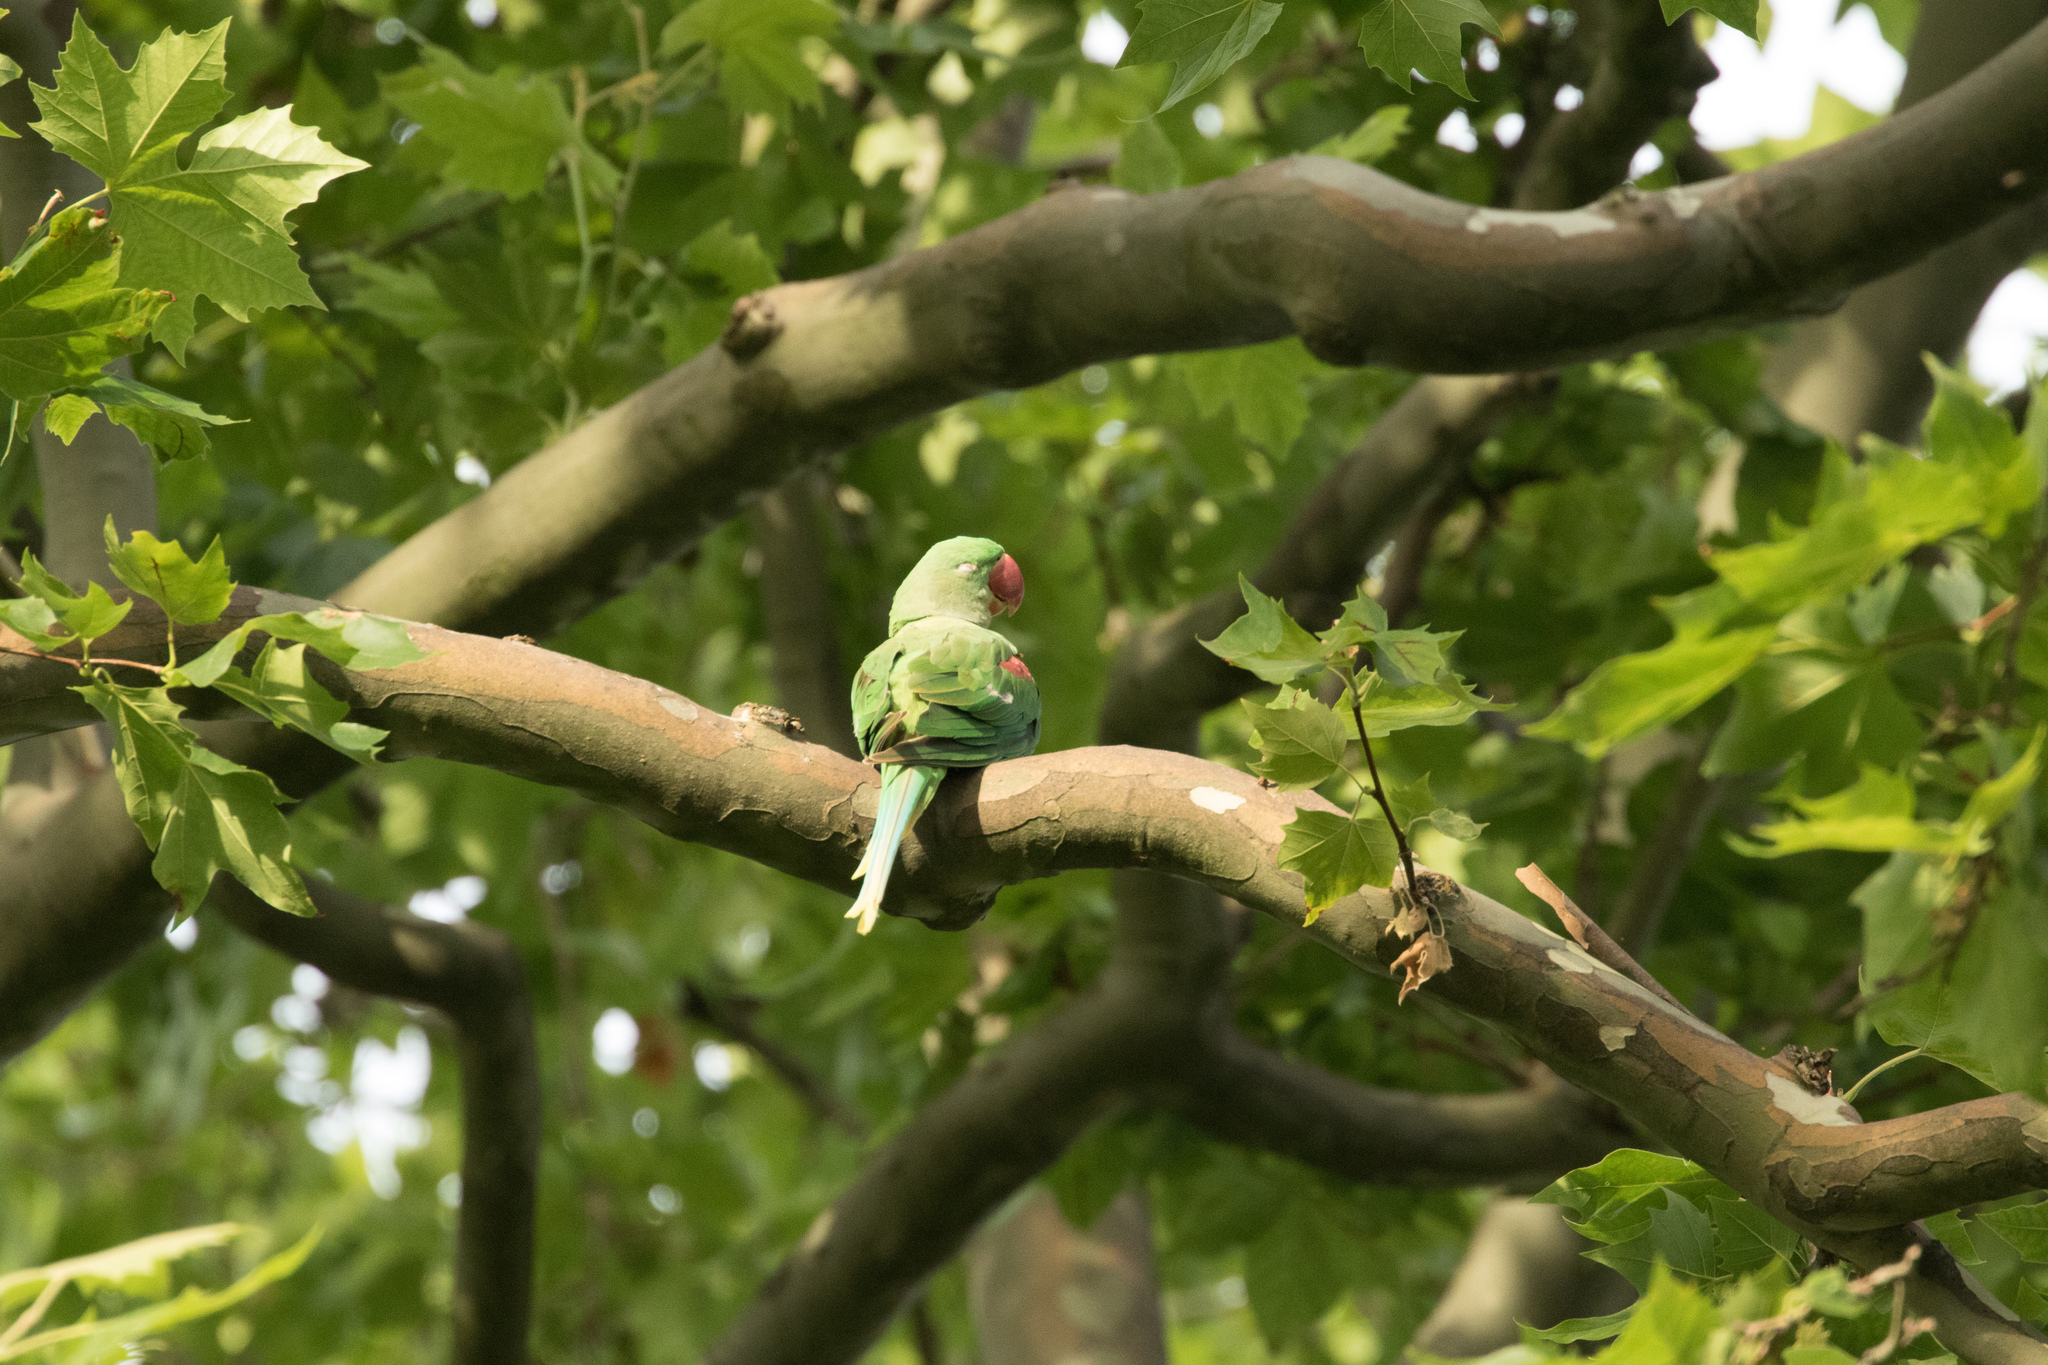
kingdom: Animalia
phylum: Chordata
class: Aves
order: Psittaciformes
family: Psittacidae
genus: Psittacula
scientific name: Psittacula eupatria
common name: Alexandrine parakeet
